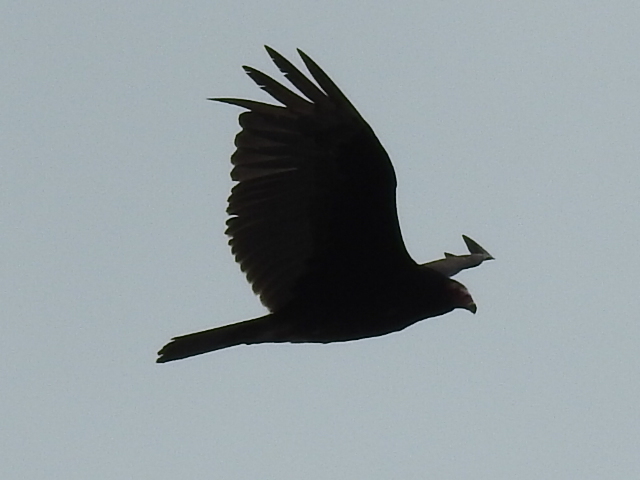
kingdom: Animalia
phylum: Chordata
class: Aves
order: Accipitriformes
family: Cathartidae
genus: Cathartes
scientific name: Cathartes aura
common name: Turkey vulture
